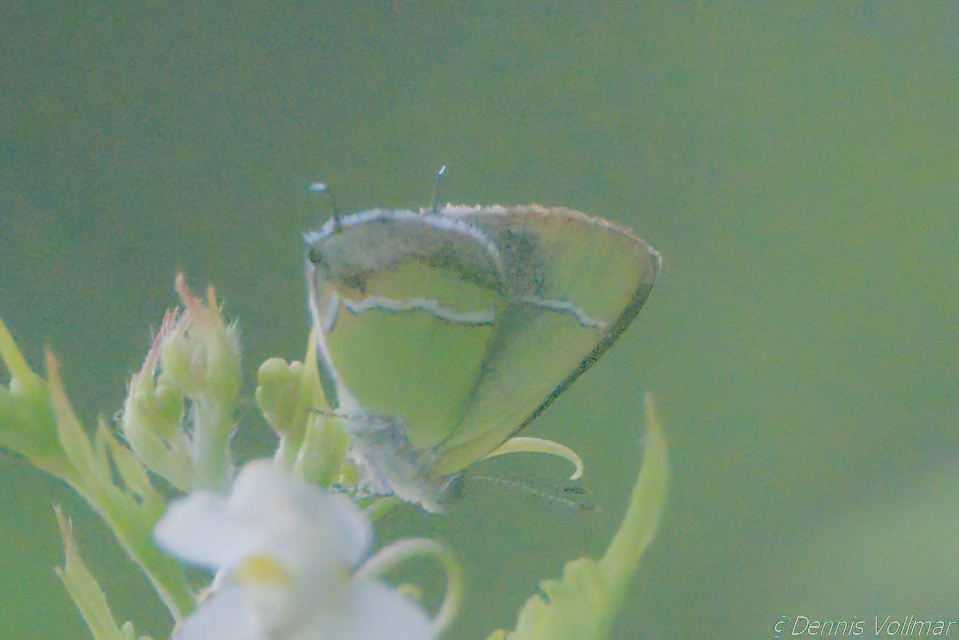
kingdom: Animalia
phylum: Arthropoda
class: Insecta
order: Lepidoptera
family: Lycaenidae
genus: Chlorostrymon
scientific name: Chlorostrymon simaethis
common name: Silver-banded hairstreak
